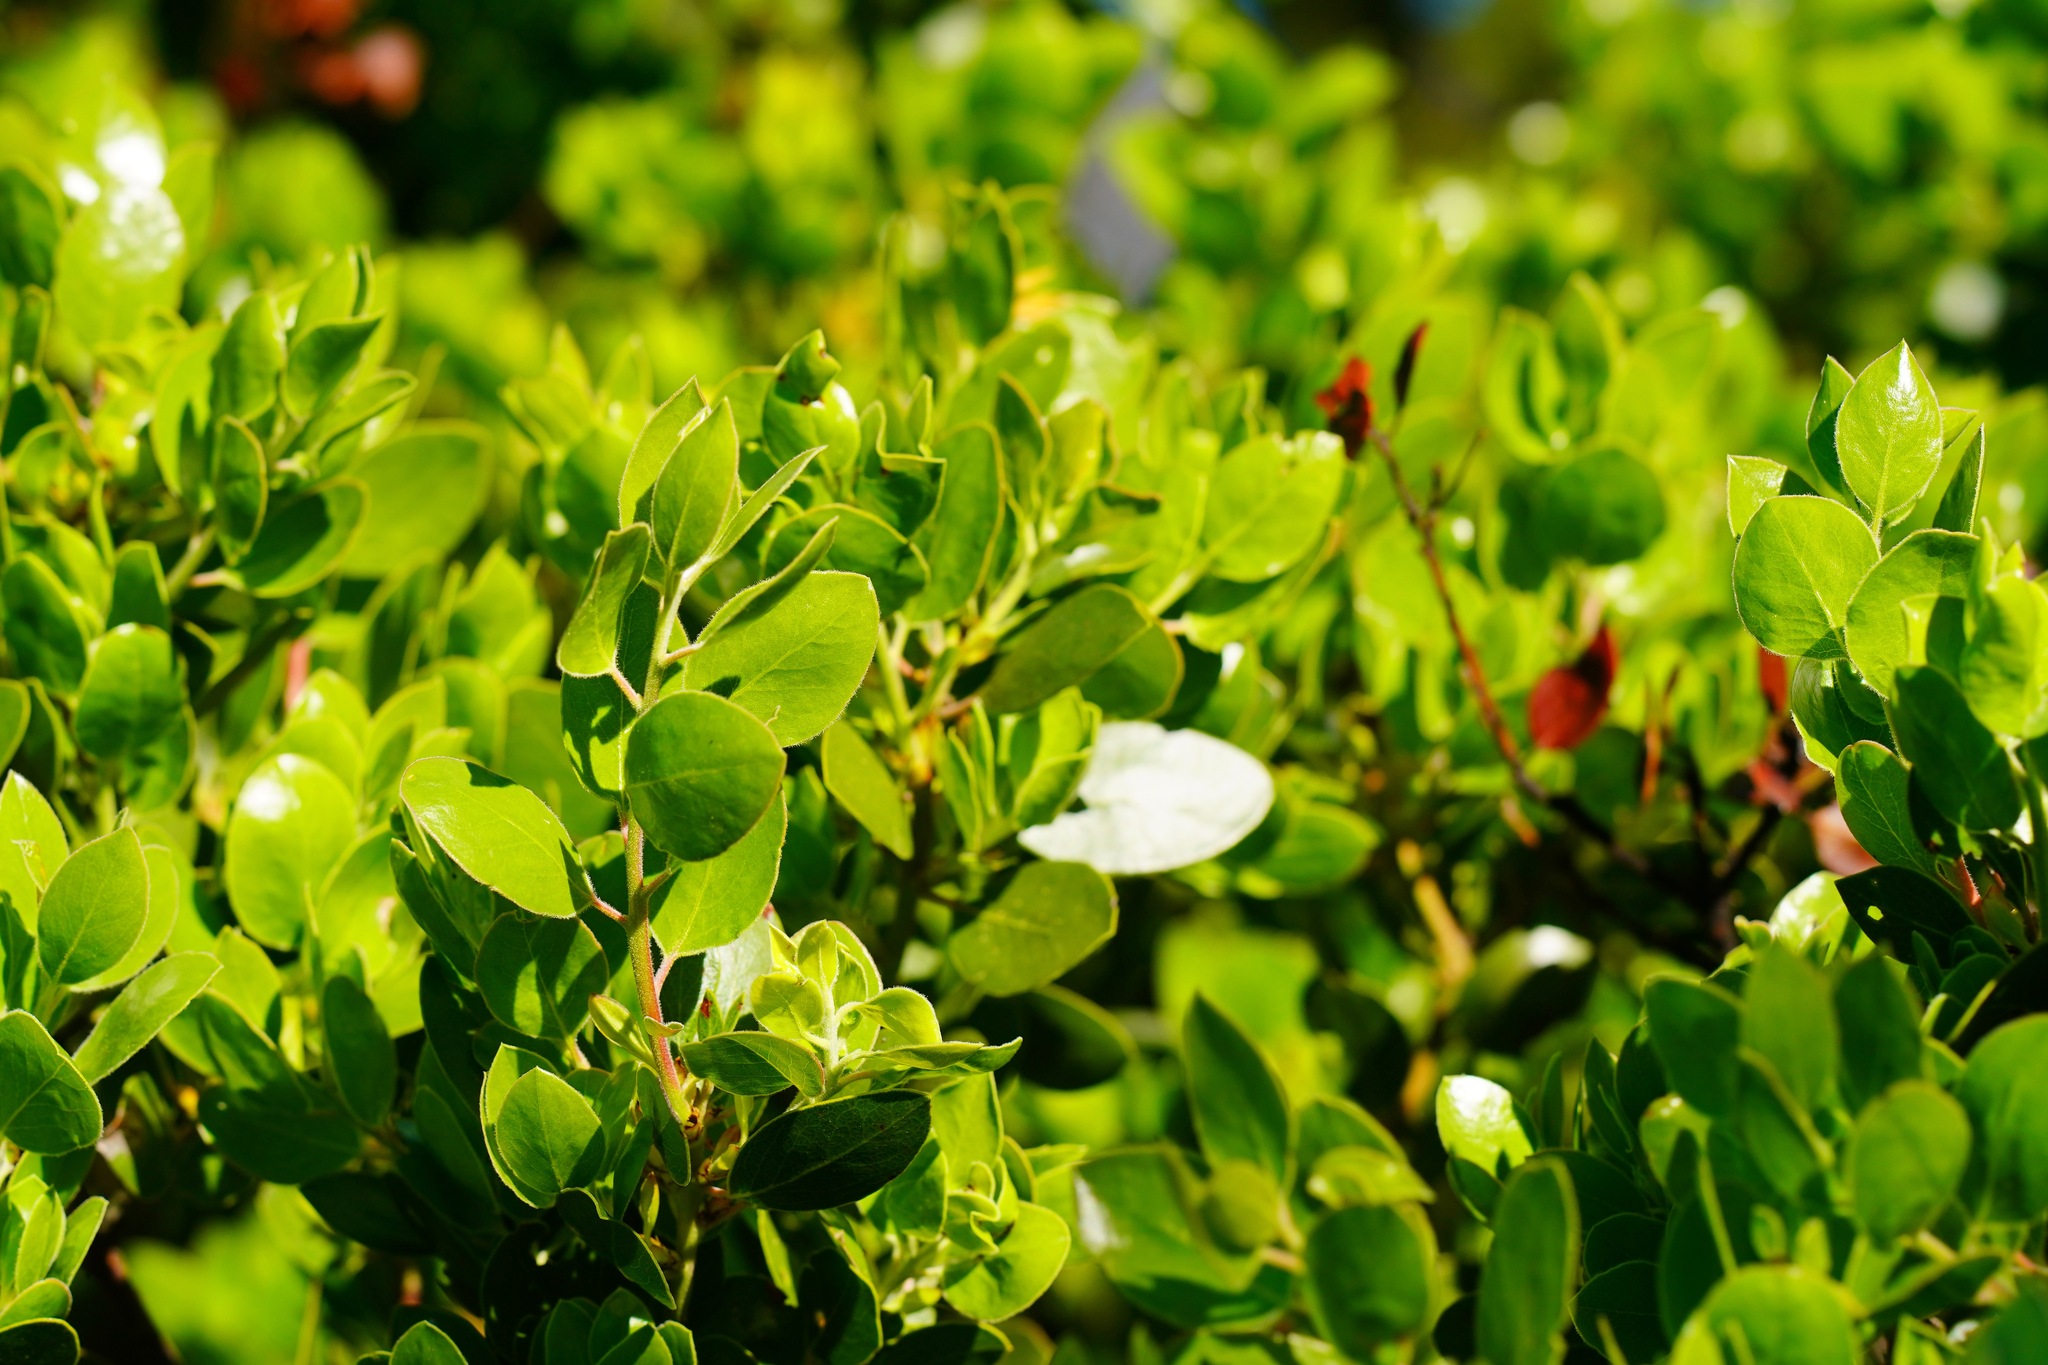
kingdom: Plantae
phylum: Tracheophyta
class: Magnoliopsida
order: Ericales
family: Ericaceae
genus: Arctostaphylos
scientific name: Arctostaphylos manzanita
